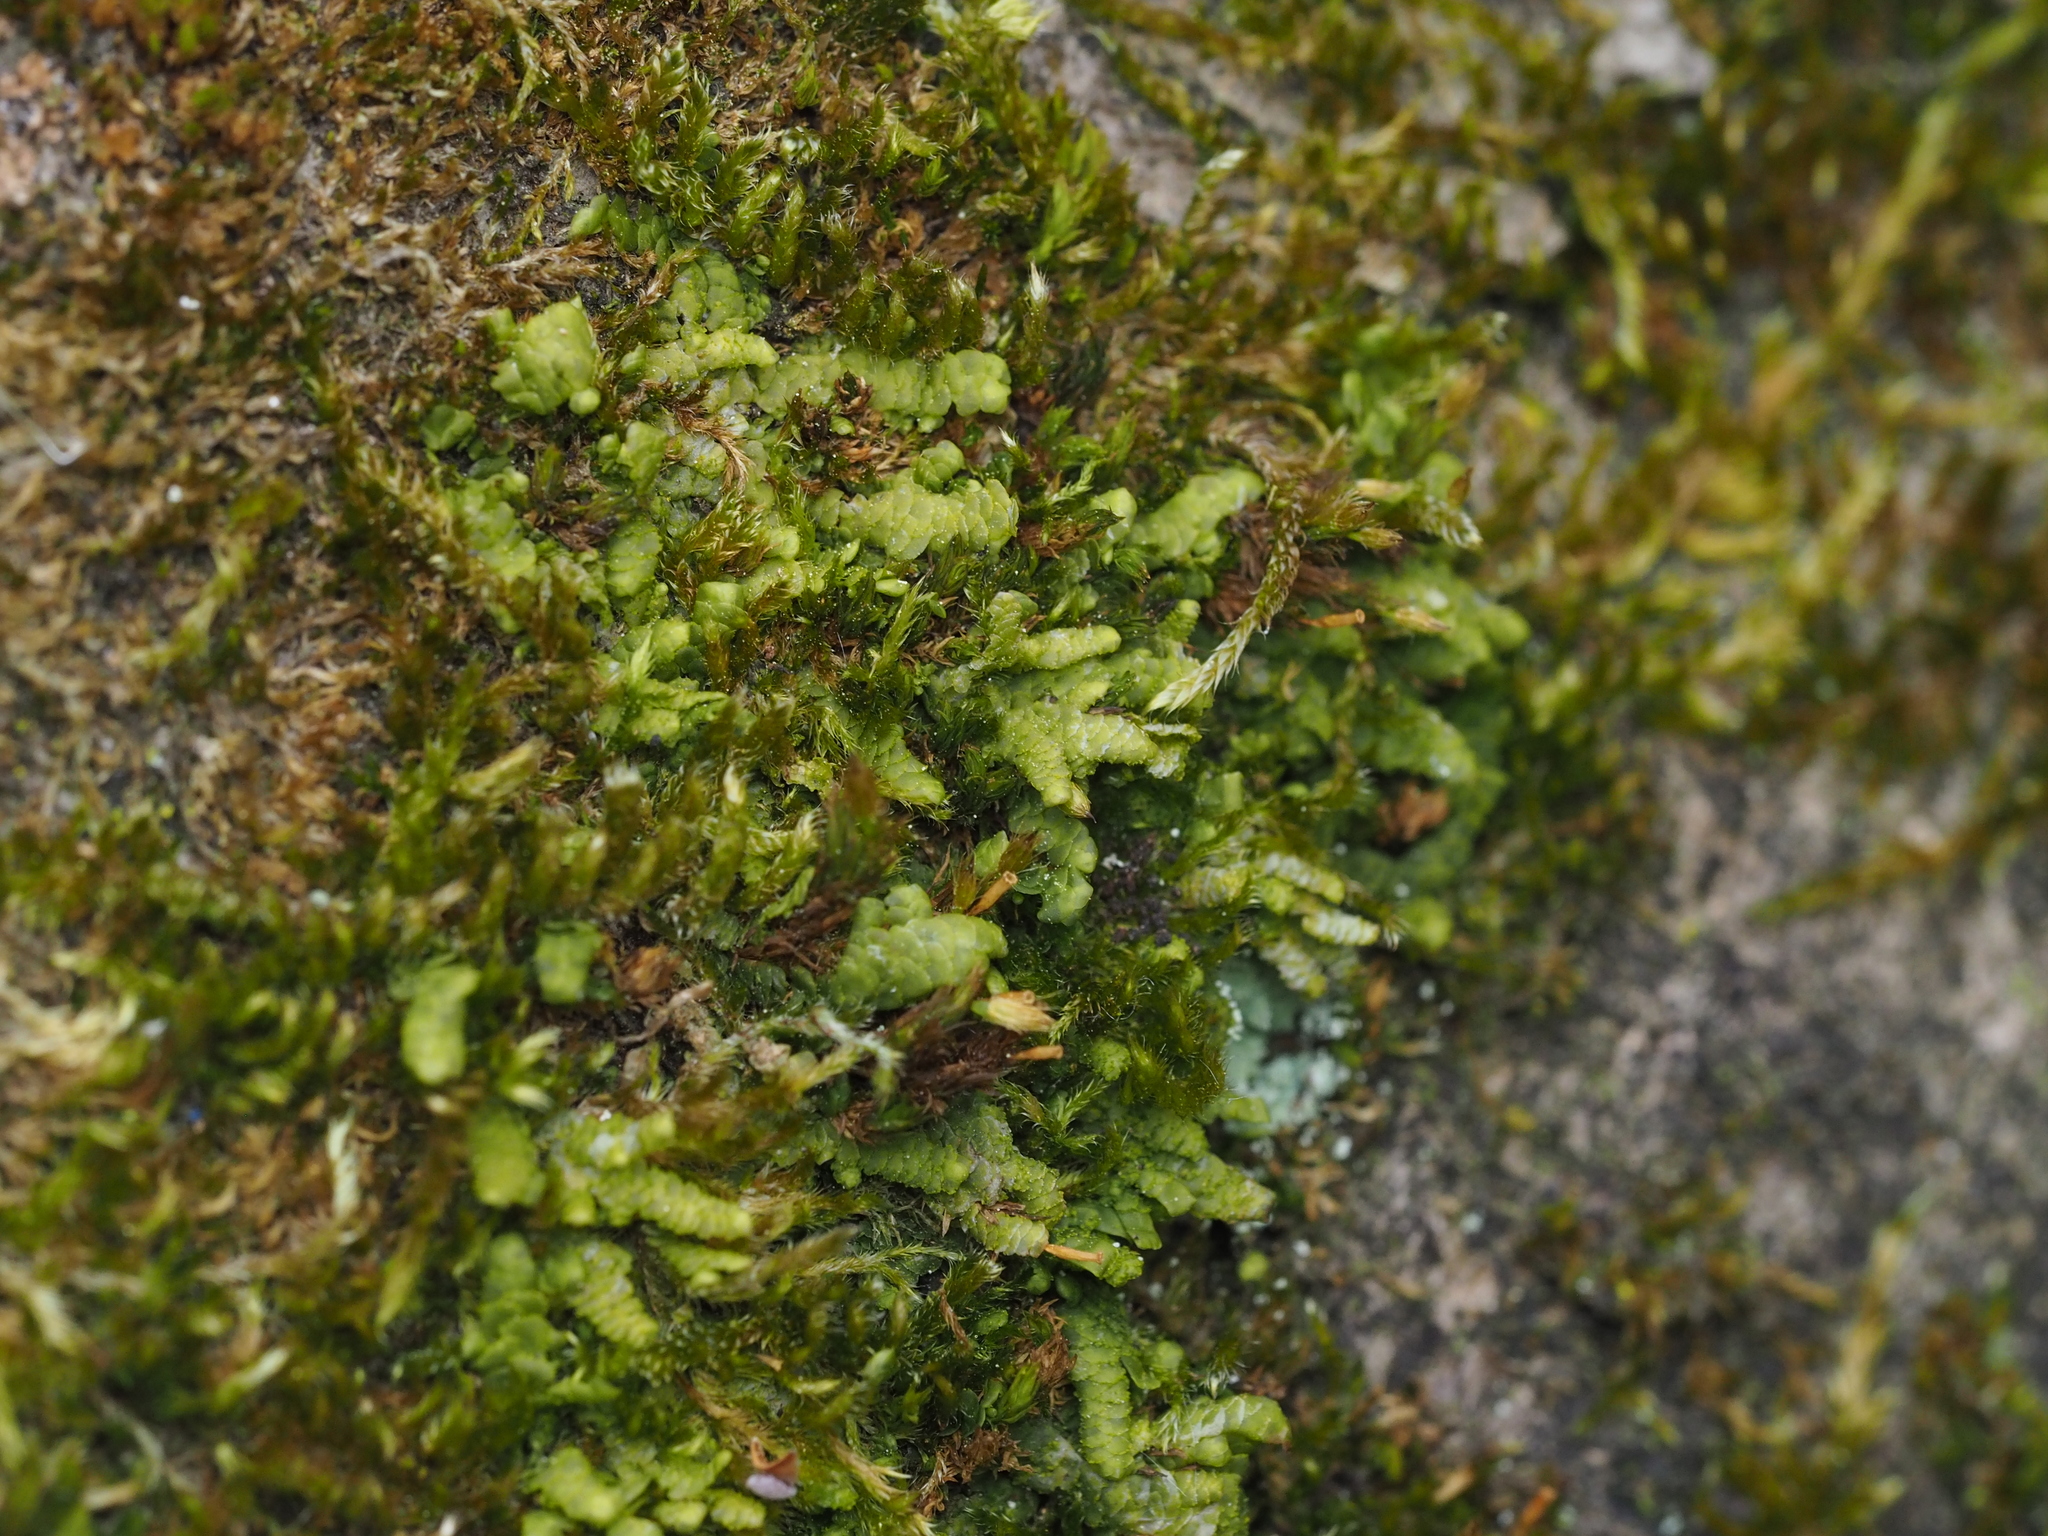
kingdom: Plantae
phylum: Marchantiophyta
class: Jungermanniopsida
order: Porellales
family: Radulaceae
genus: Radula
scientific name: Radula complanata
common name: Flat-leaved scalewort
